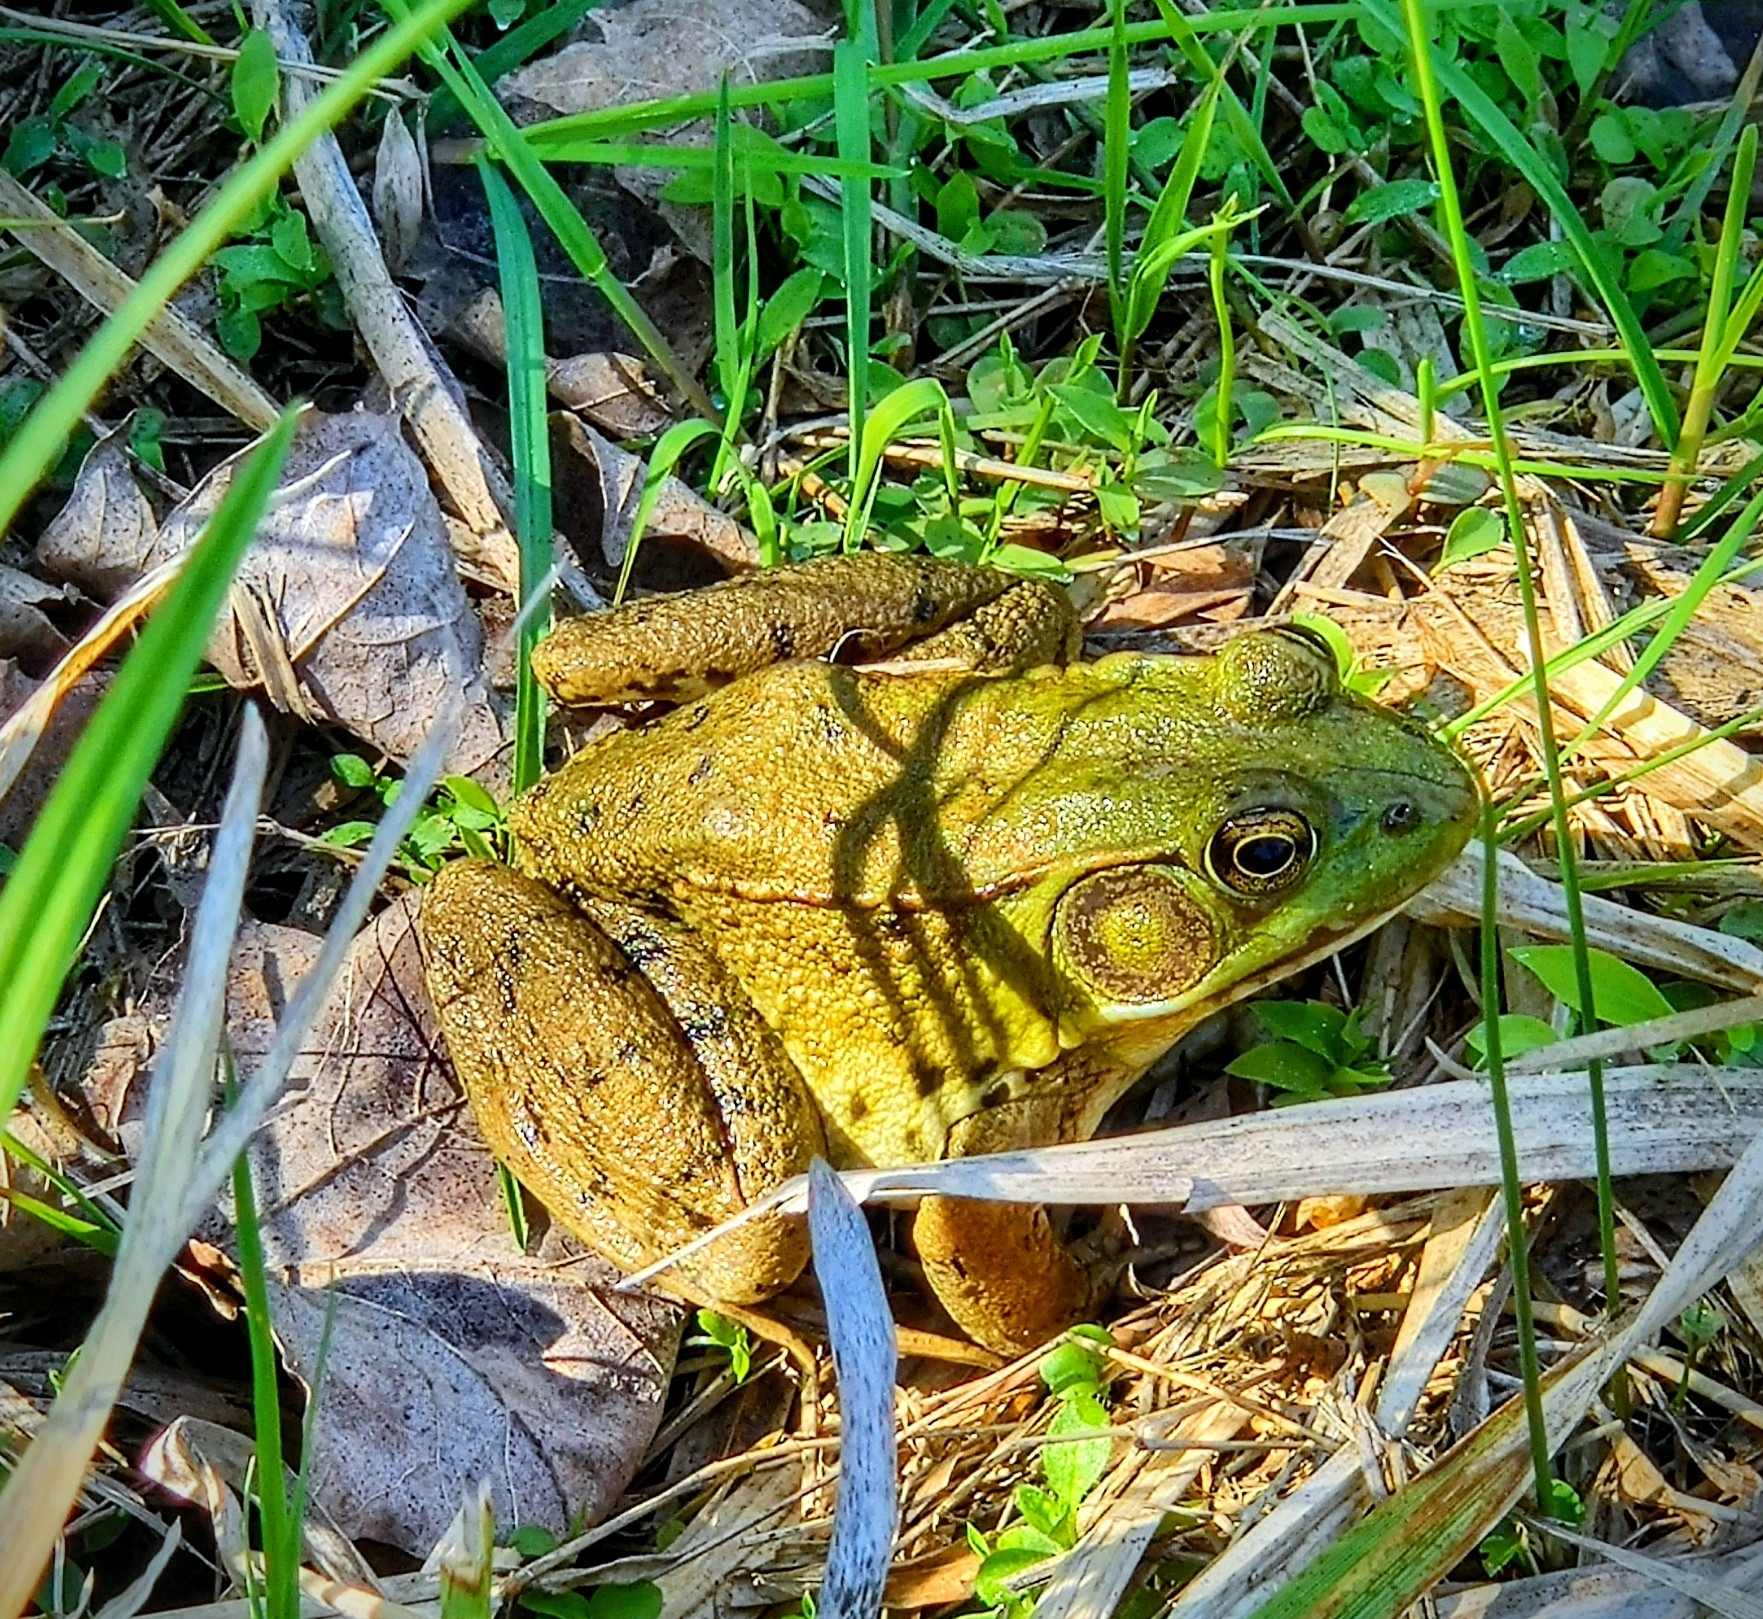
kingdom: Animalia
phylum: Chordata
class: Amphibia
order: Anura
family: Ranidae
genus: Lithobates
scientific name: Lithobates clamitans
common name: Green frog
